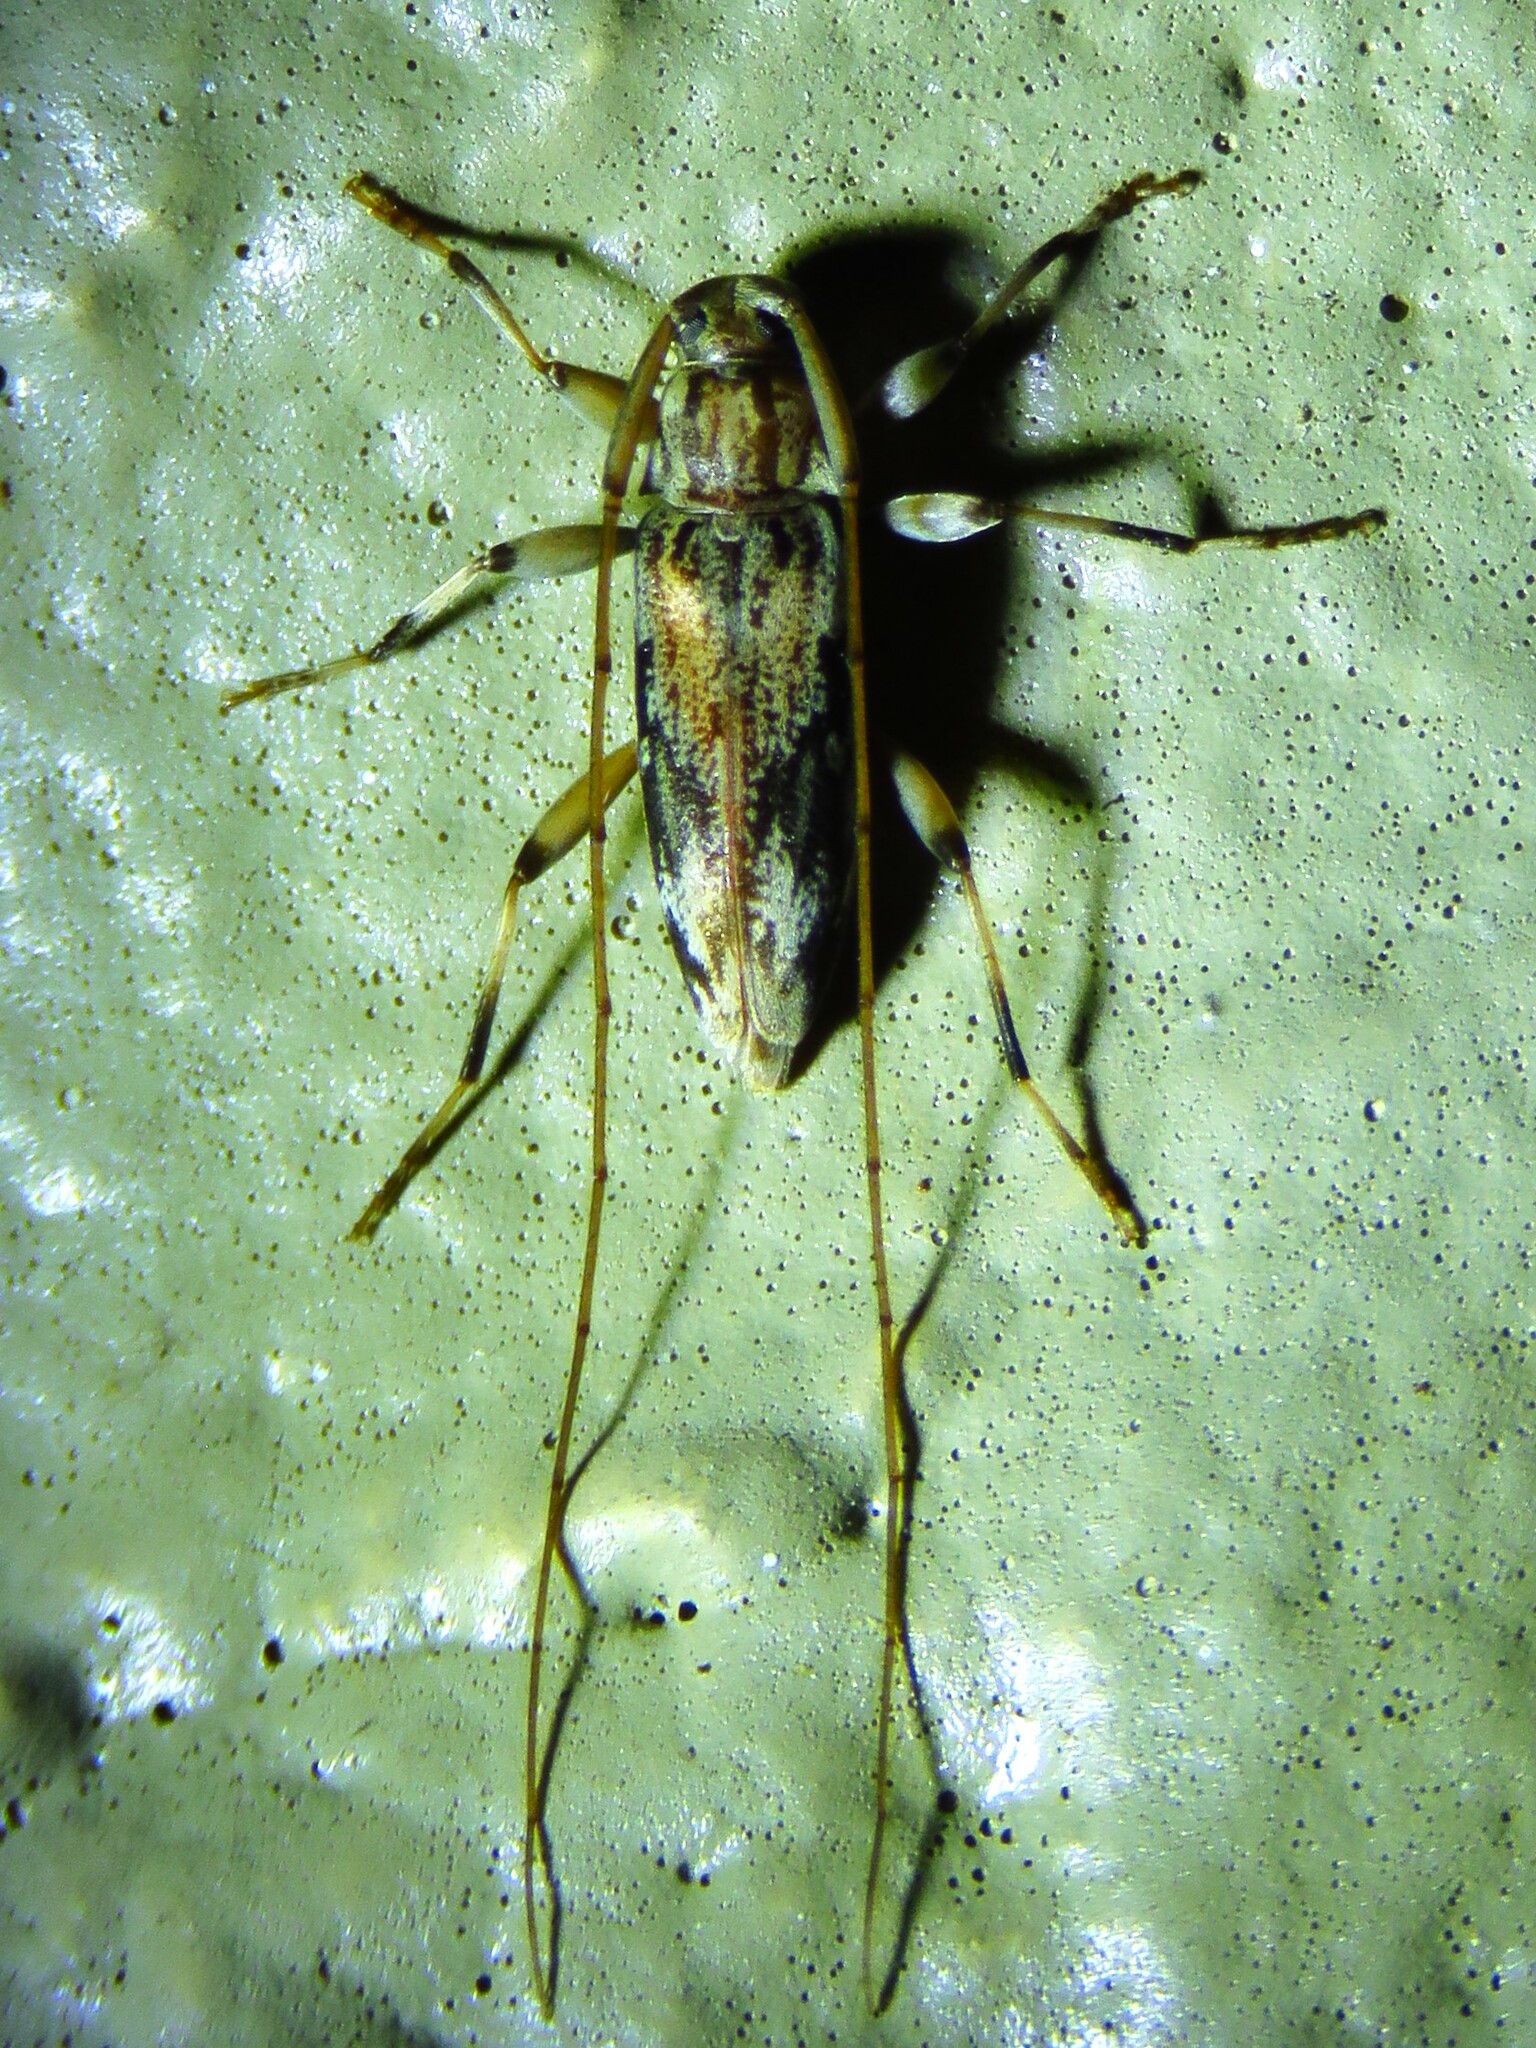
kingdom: Animalia
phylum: Arthropoda
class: Insecta
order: Coleoptera
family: Cerambycidae
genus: Lepturges
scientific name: Lepturges angulatus
